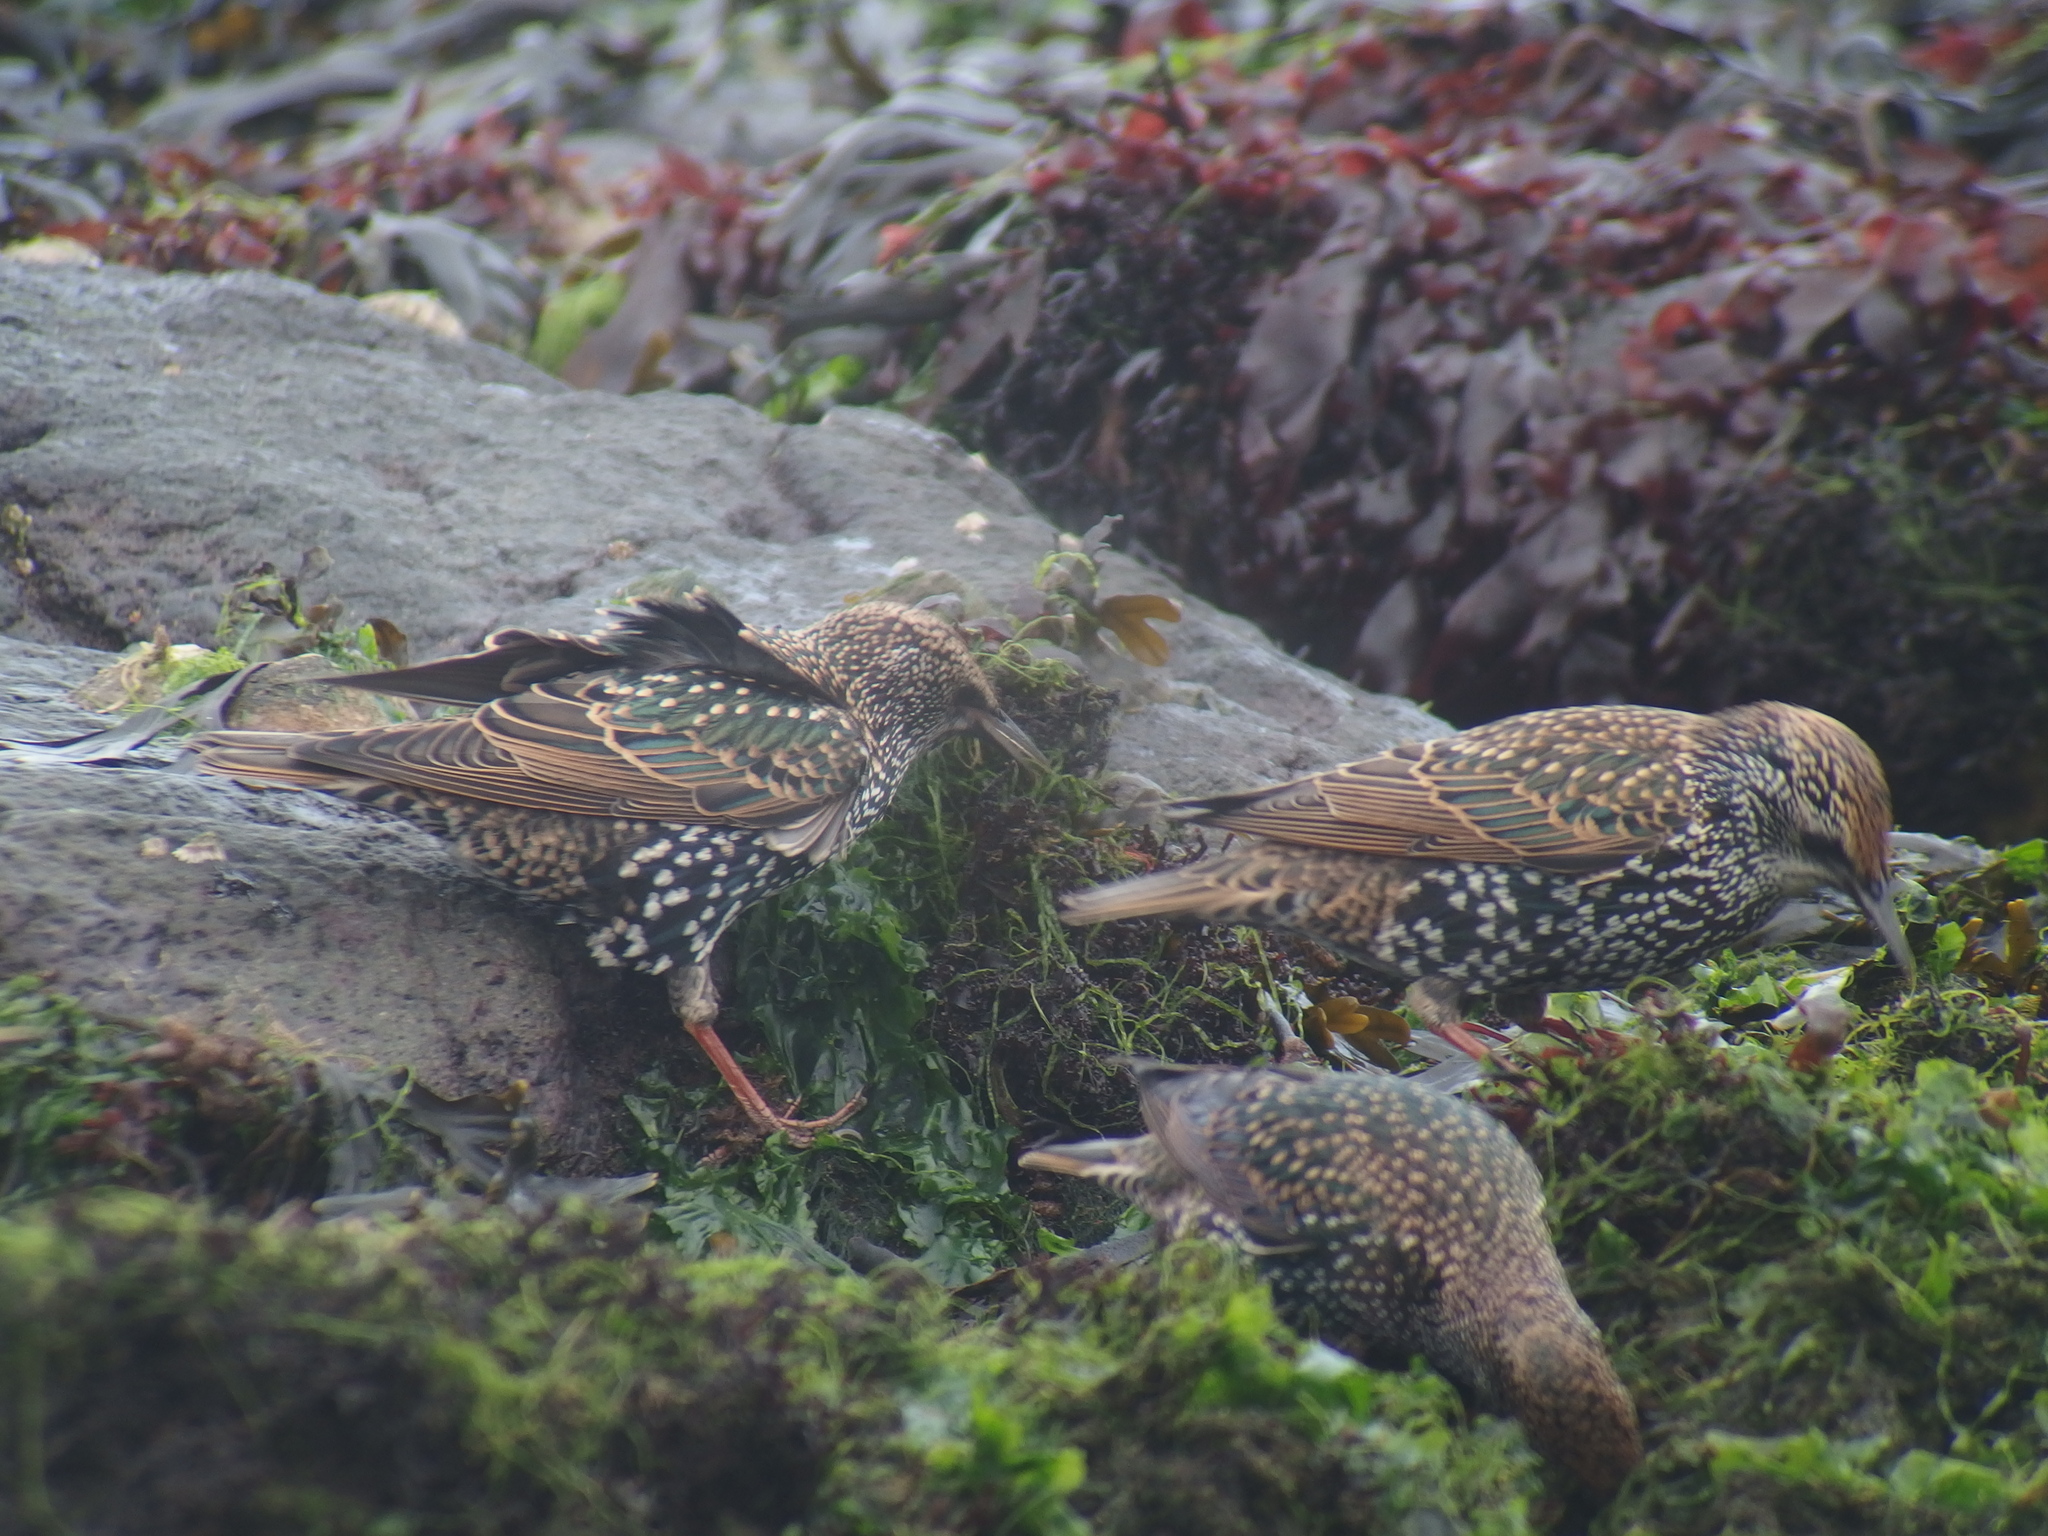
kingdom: Animalia
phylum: Chordata
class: Aves
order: Passeriformes
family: Sturnidae
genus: Sturnus
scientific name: Sturnus vulgaris
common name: Common starling
